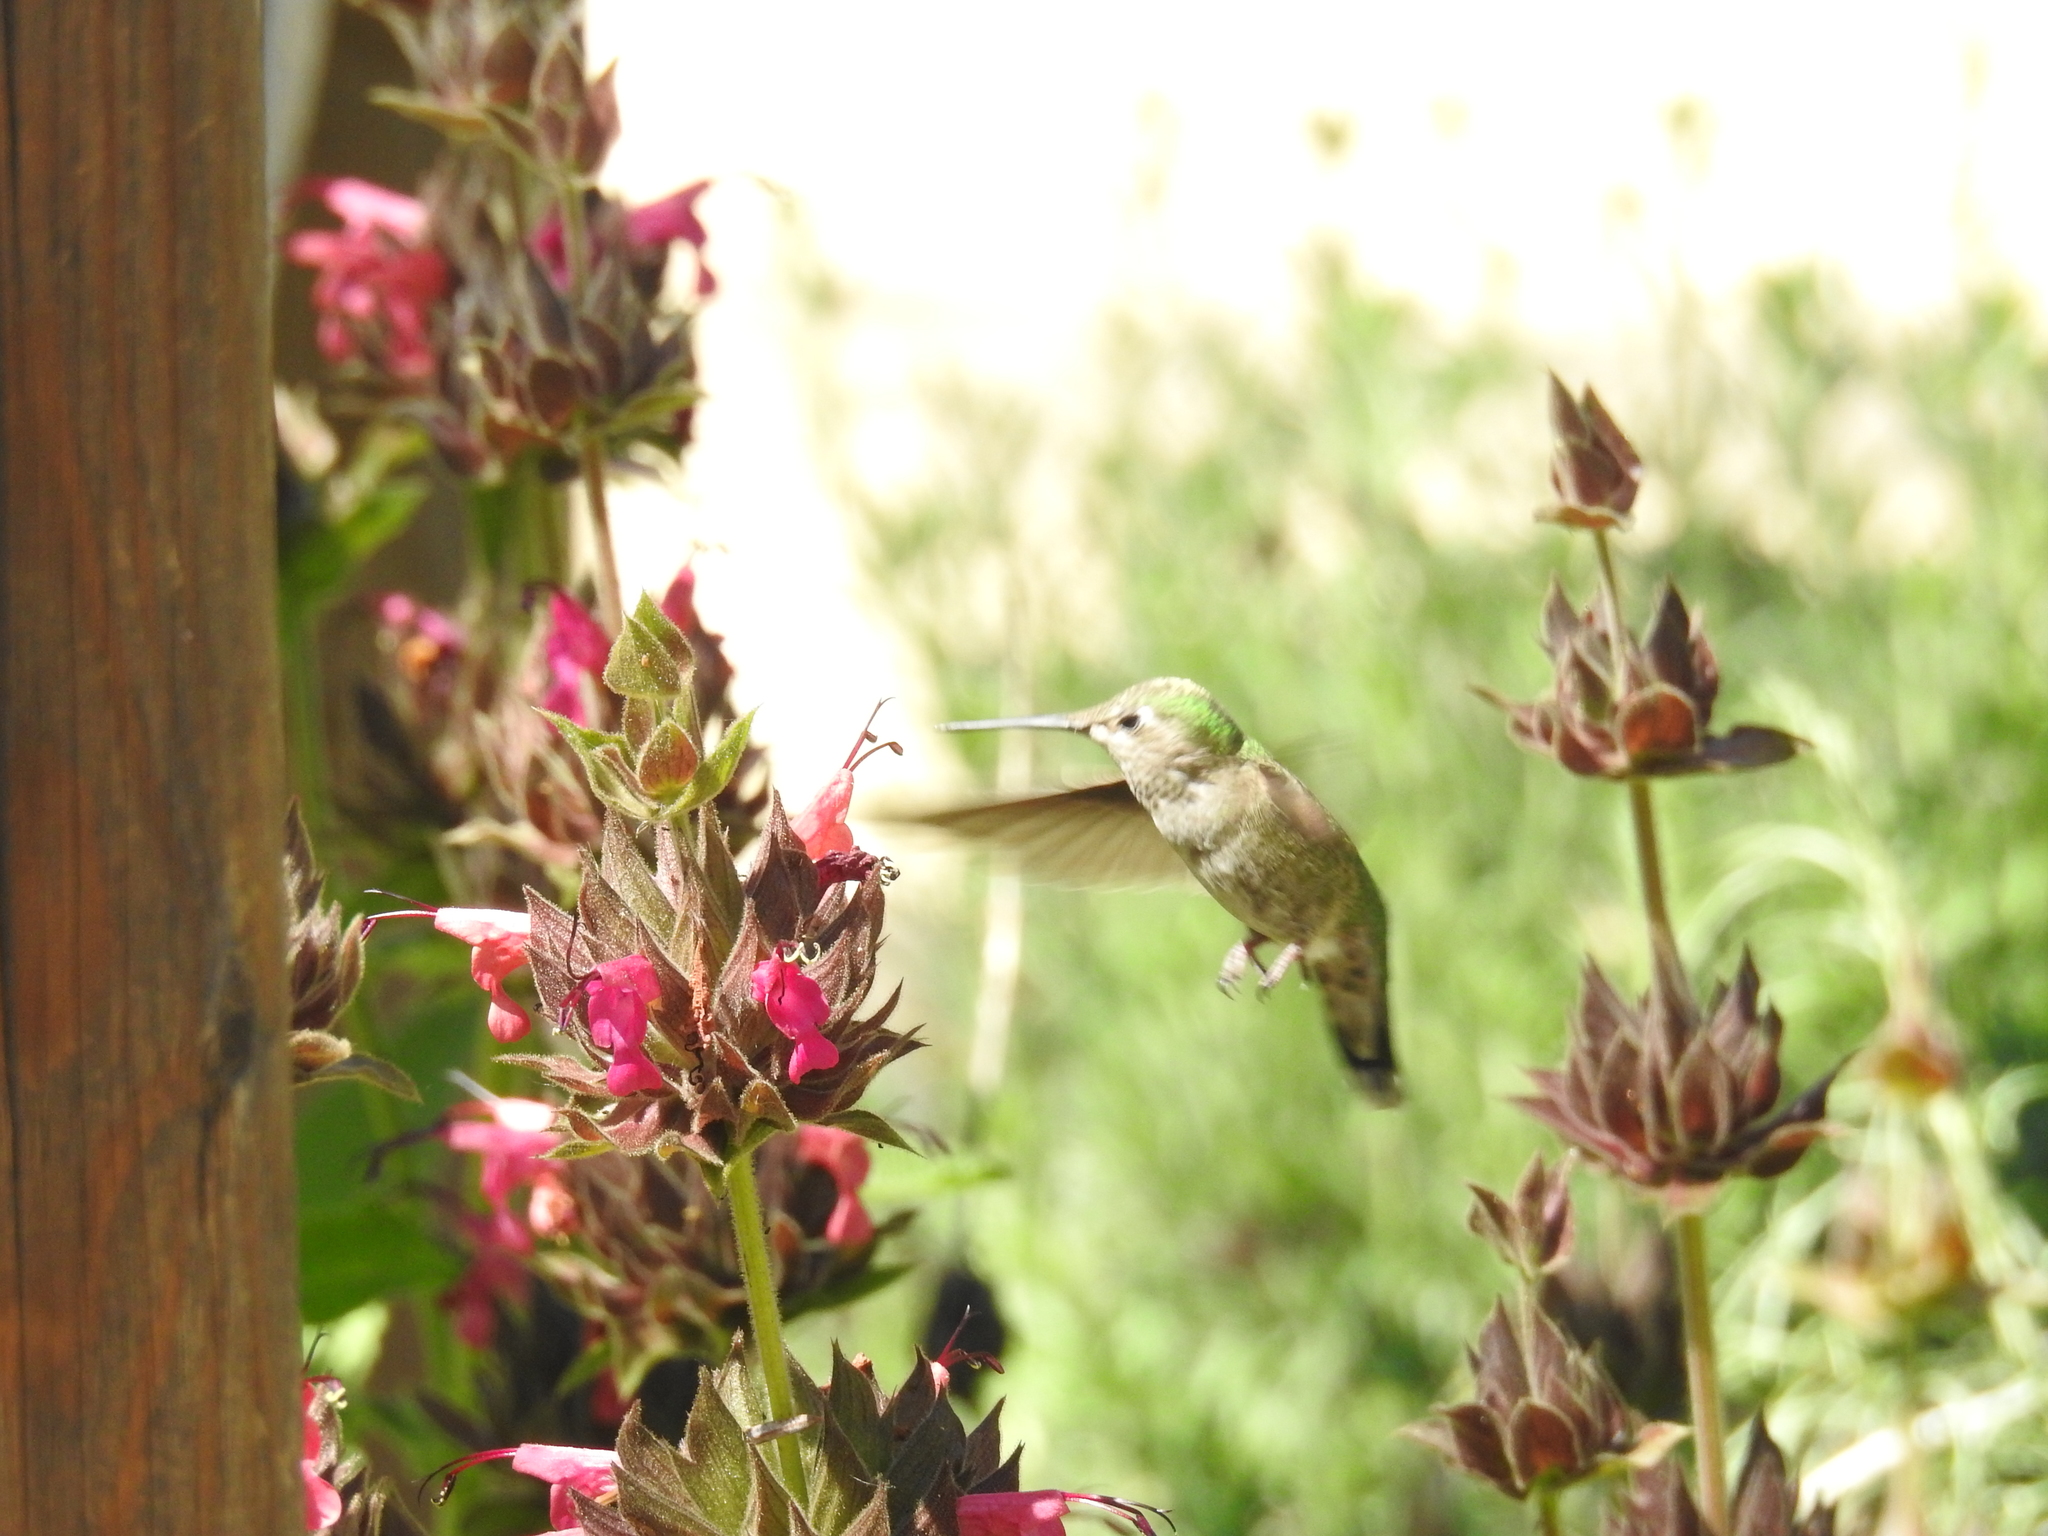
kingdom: Animalia
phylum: Chordata
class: Aves
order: Apodiformes
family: Trochilidae
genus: Calypte
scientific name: Calypte anna
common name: Anna's hummingbird
